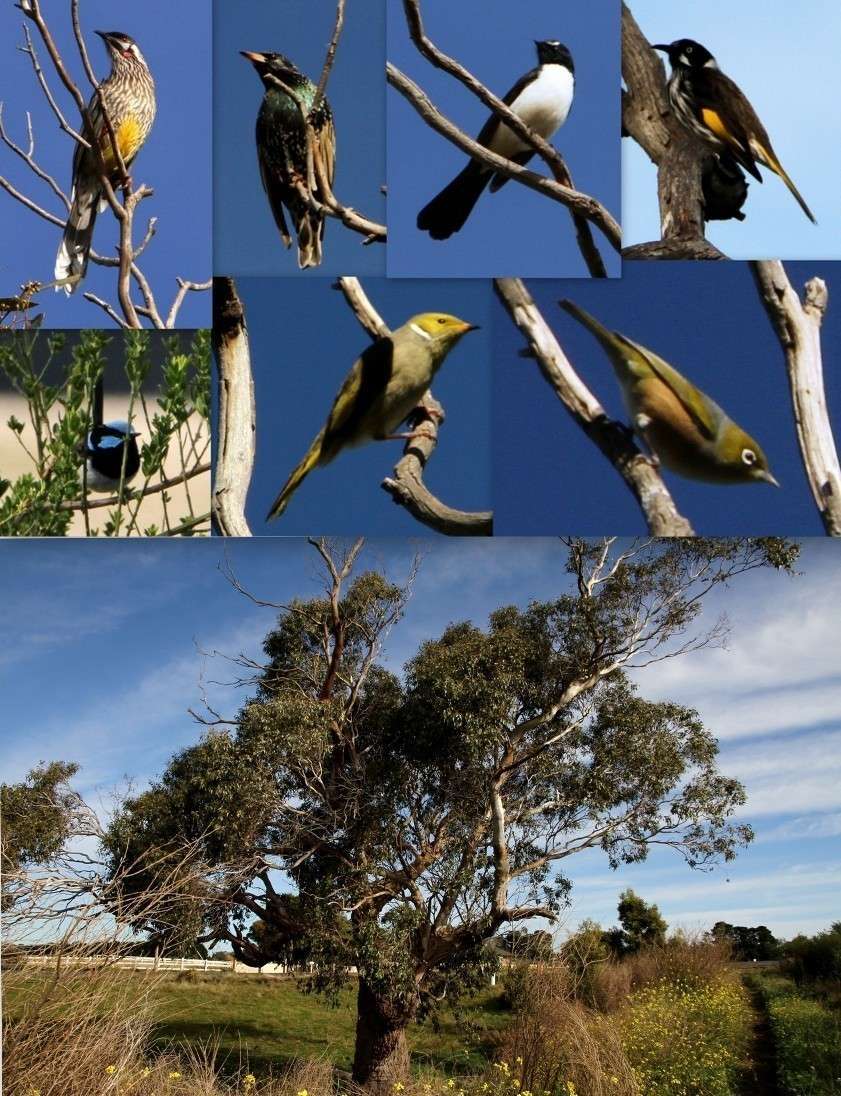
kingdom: Animalia
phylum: Chordata
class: Aves
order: Passeriformes
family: Zosteropidae
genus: Zosterops
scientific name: Zosterops lateralis
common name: Silvereye
